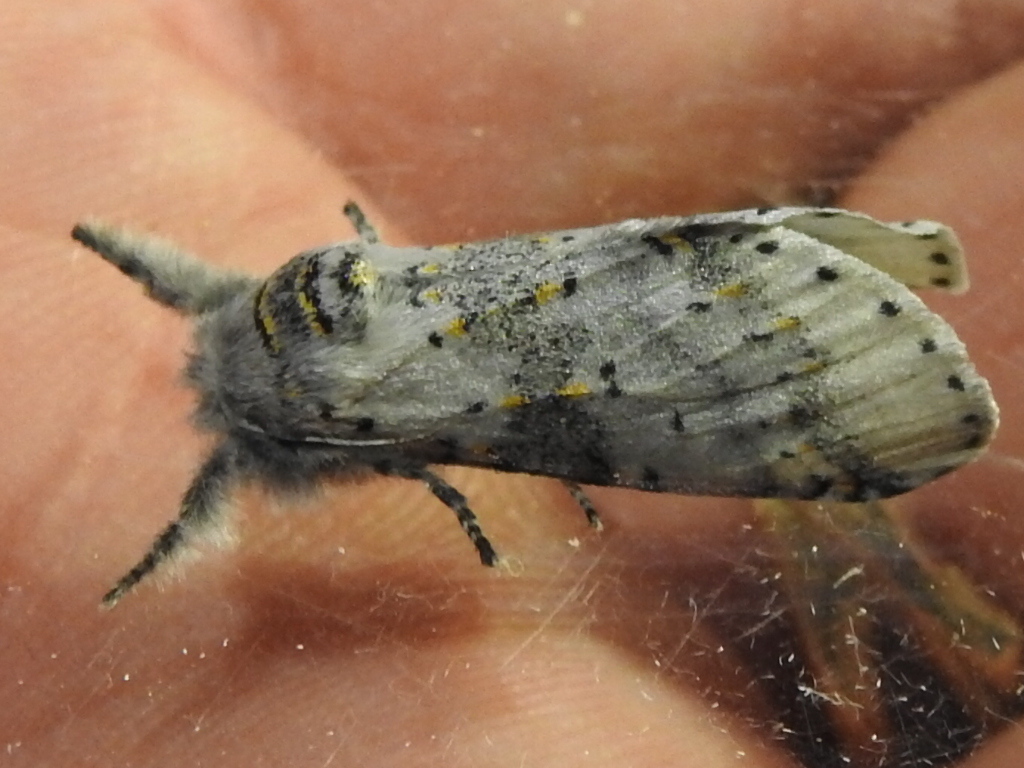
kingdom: Animalia
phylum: Arthropoda
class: Insecta
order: Lepidoptera
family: Notodontidae
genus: Furcula
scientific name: Furcula cinerea
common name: Gray furcula
